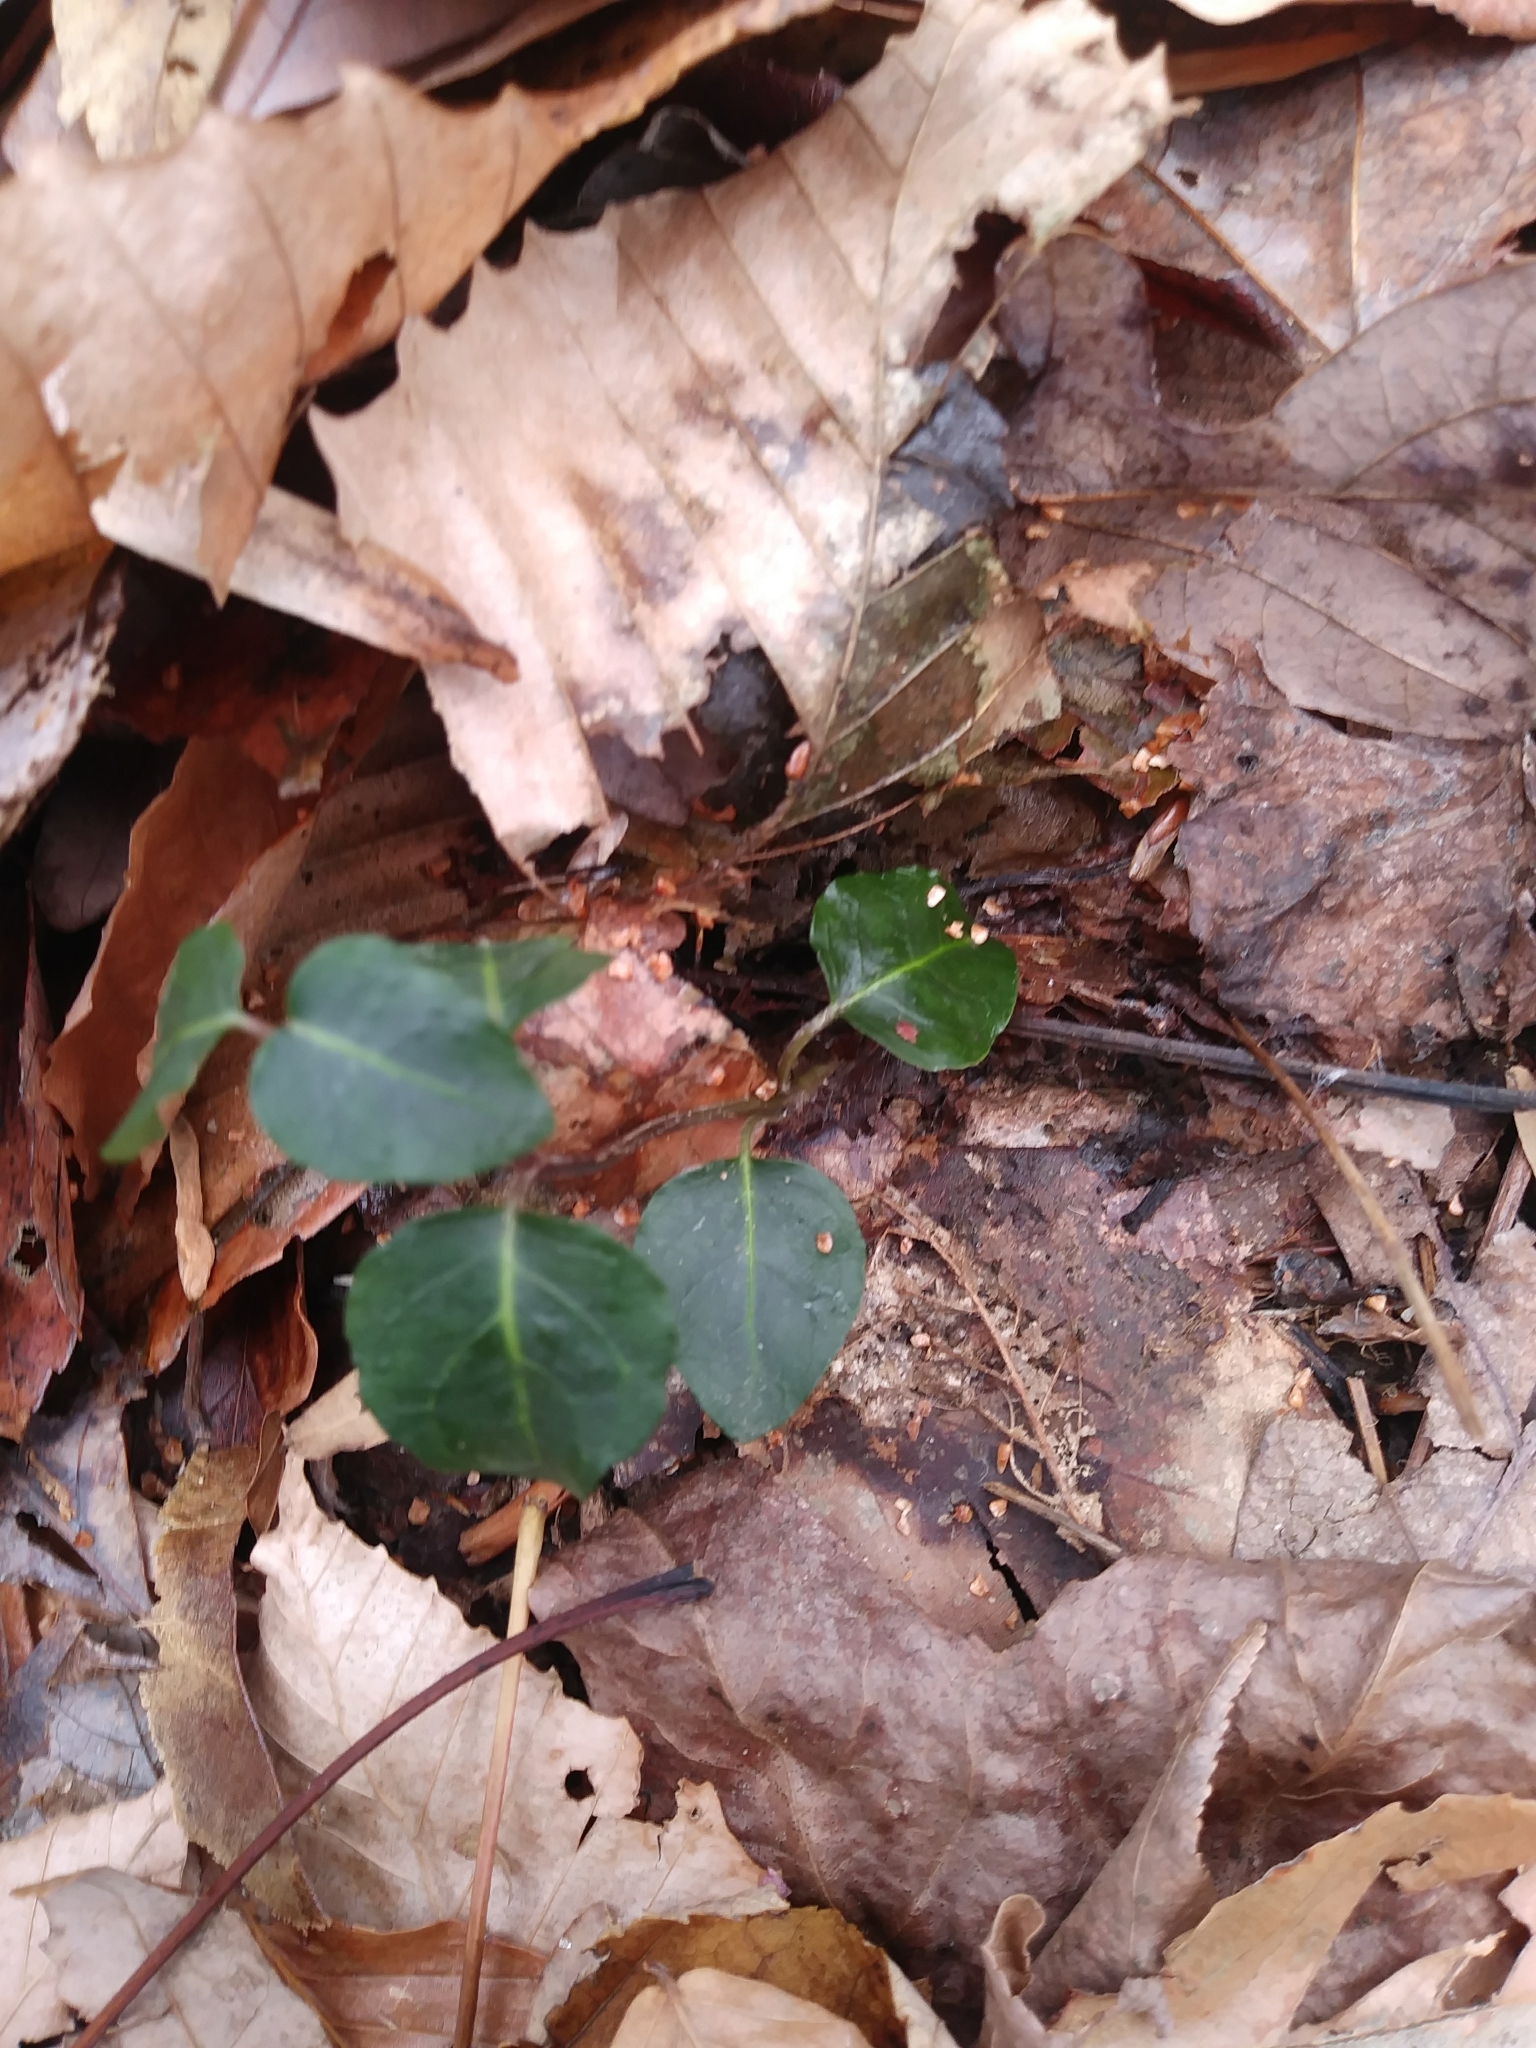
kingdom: Plantae
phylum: Tracheophyta
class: Magnoliopsida
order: Gentianales
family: Rubiaceae
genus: Mitchella
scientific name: Mitchella repens
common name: Partridge-berry
